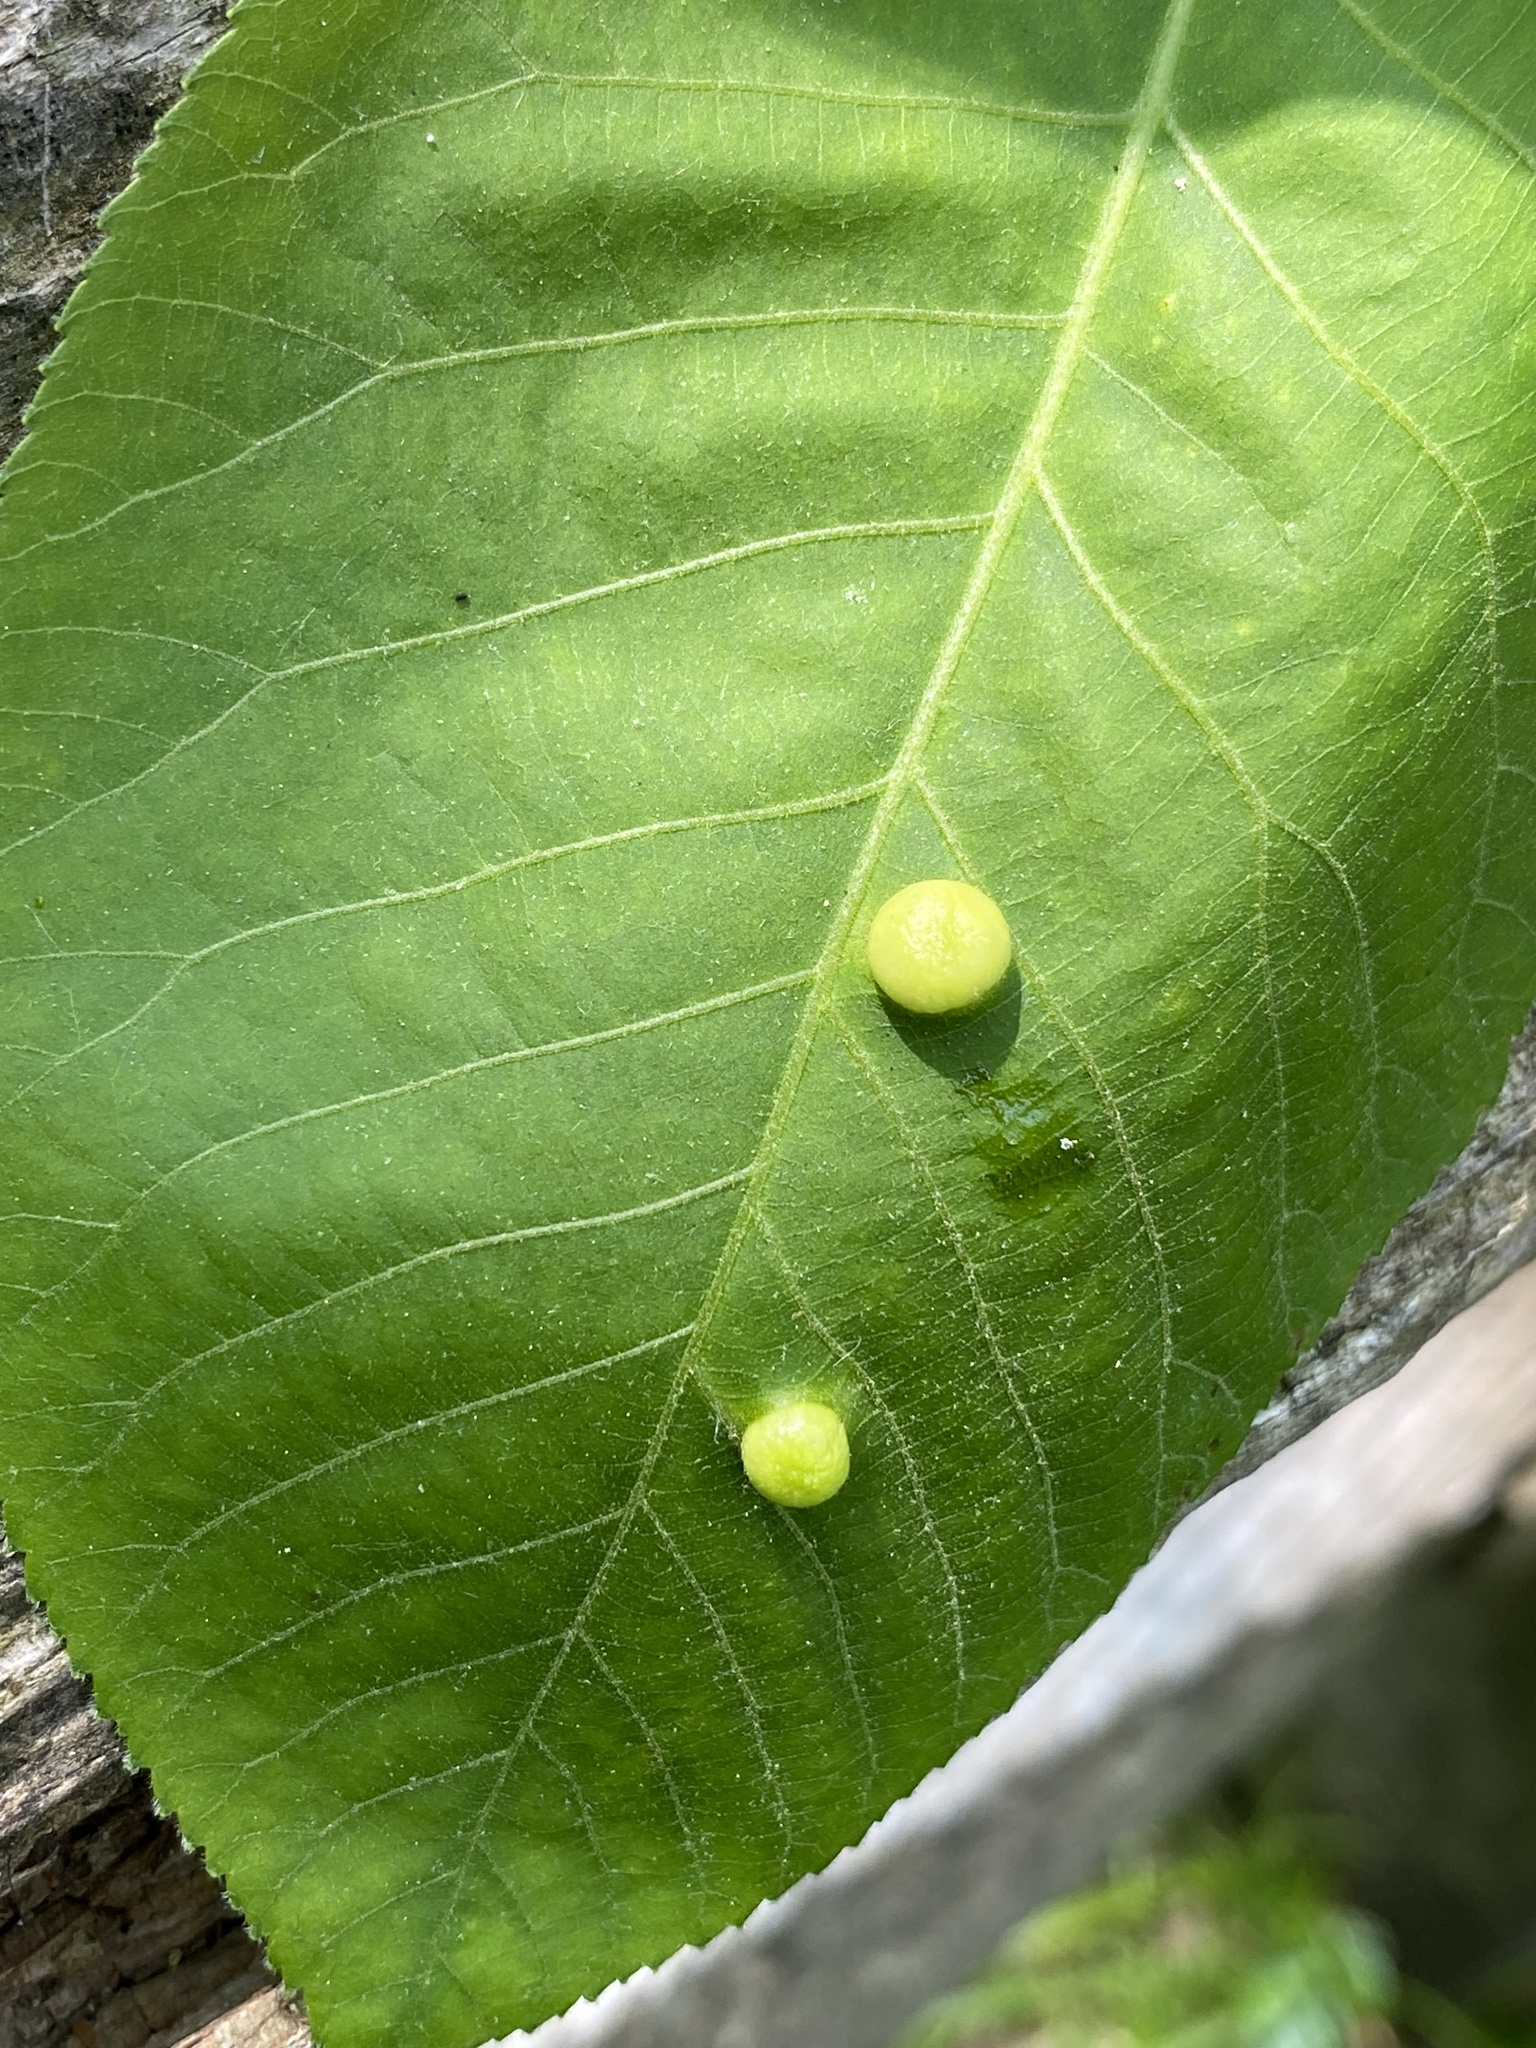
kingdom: Animalia
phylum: Arthropoda
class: Insecta
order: Hemiptera
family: Phylloxeridae
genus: Phylloxera
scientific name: Phylloxera caryae-globuli
